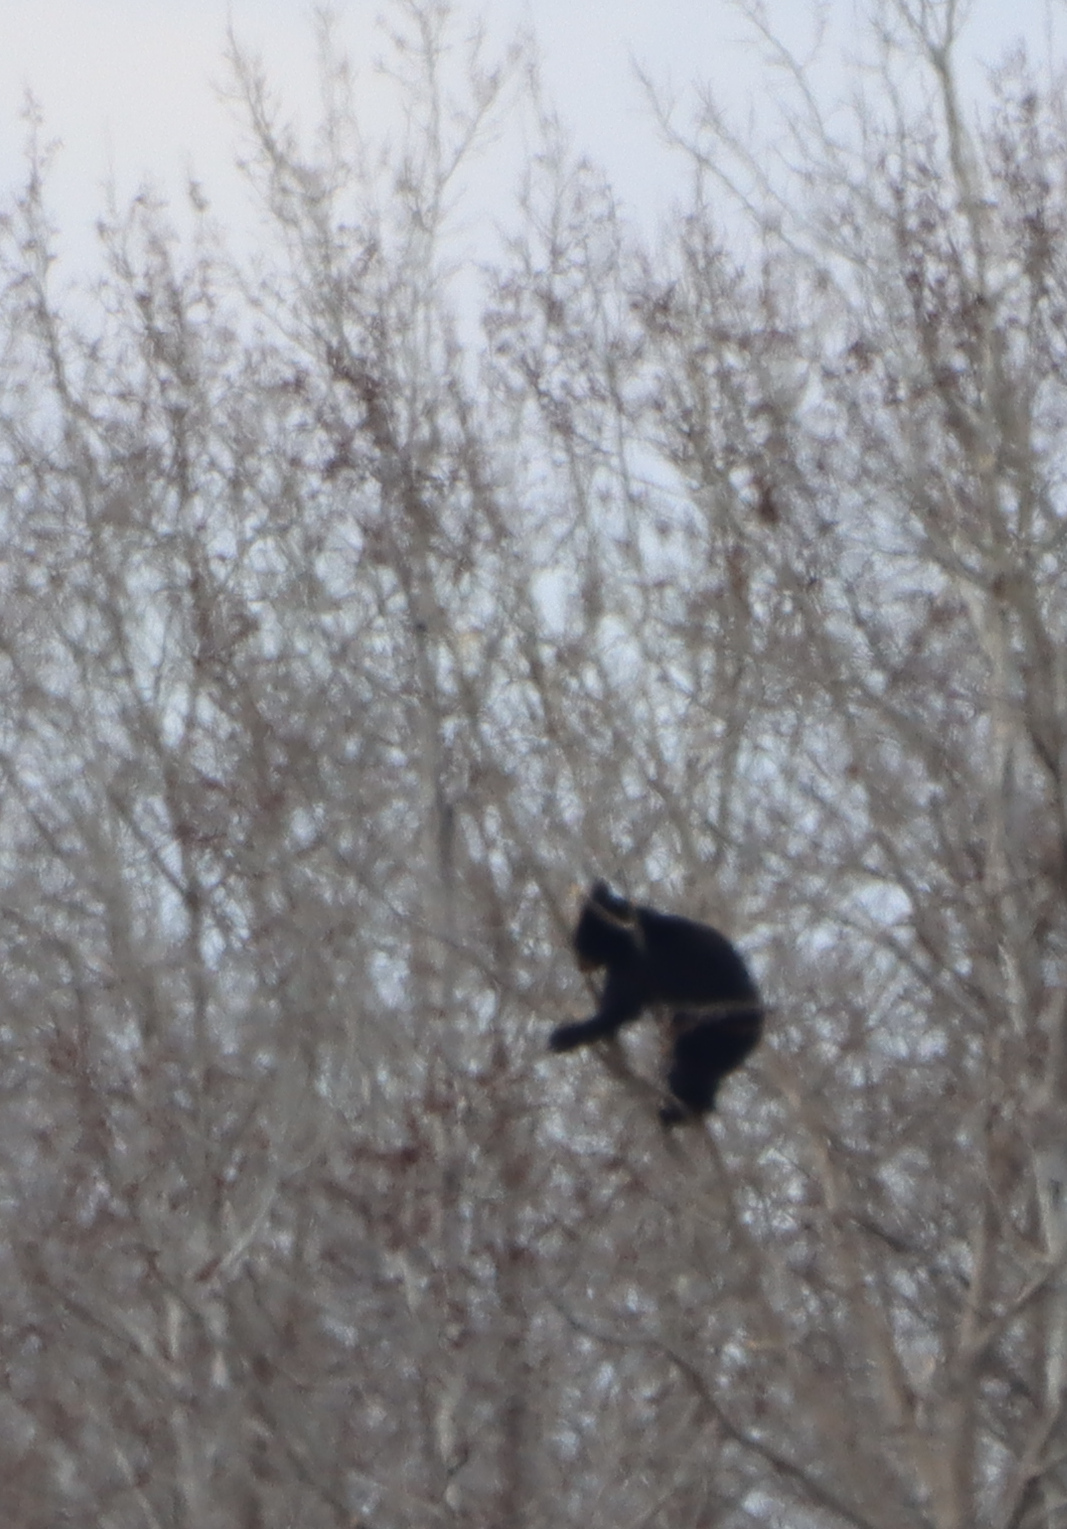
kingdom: Animalia
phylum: Chordata
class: Mammalia
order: Carnivora
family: Ursidae
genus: Ursus
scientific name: Ursus americanus
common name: American black bear
